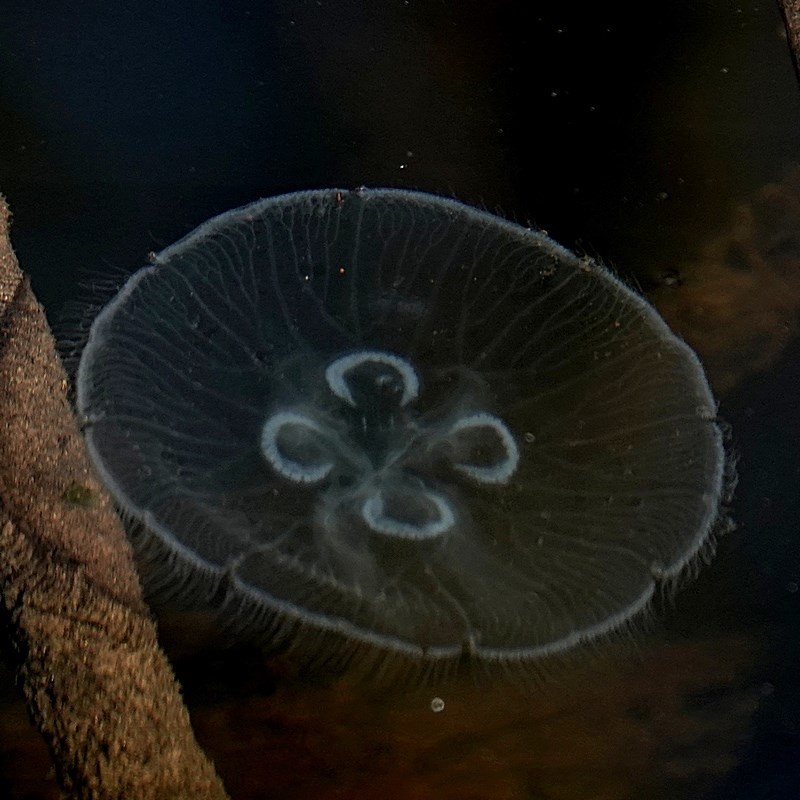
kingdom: Animalia
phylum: Cnidaria
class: Scyphozoa
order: Semaeostomeae
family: Ulmaridae
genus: Aurelia
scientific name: Aurelia
